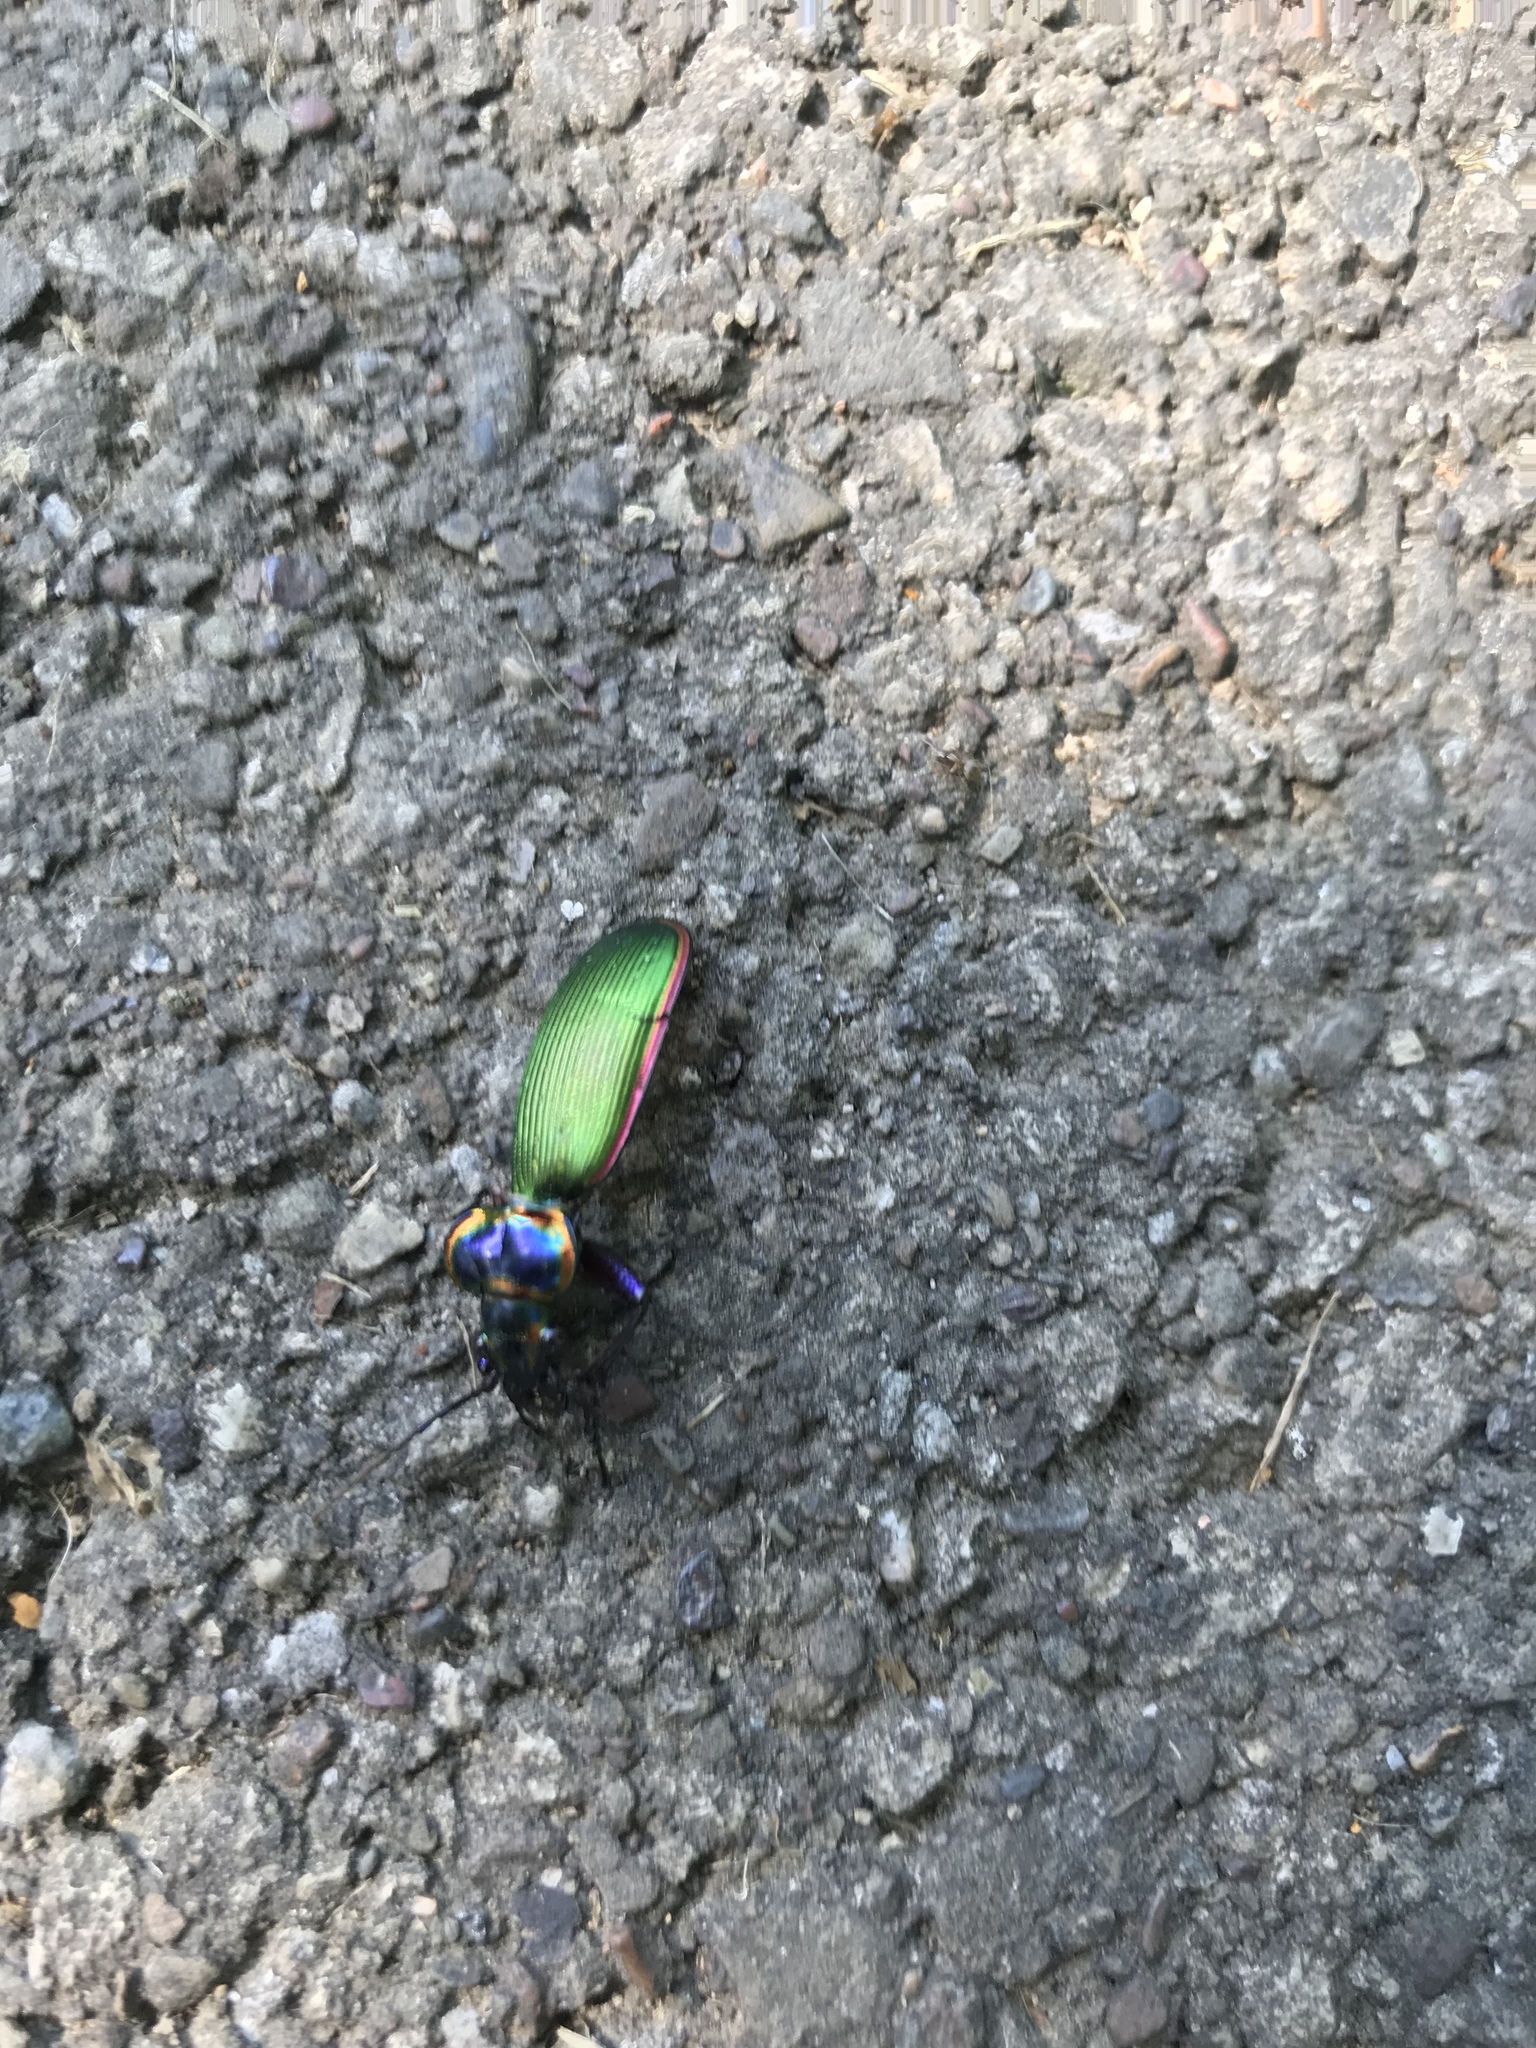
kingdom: Animalia
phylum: Arthropoda
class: Insecta
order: Coleoptera
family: Carabidae
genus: Calosoma
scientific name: Calosoma scrutator
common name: Fiery searcher beetle
